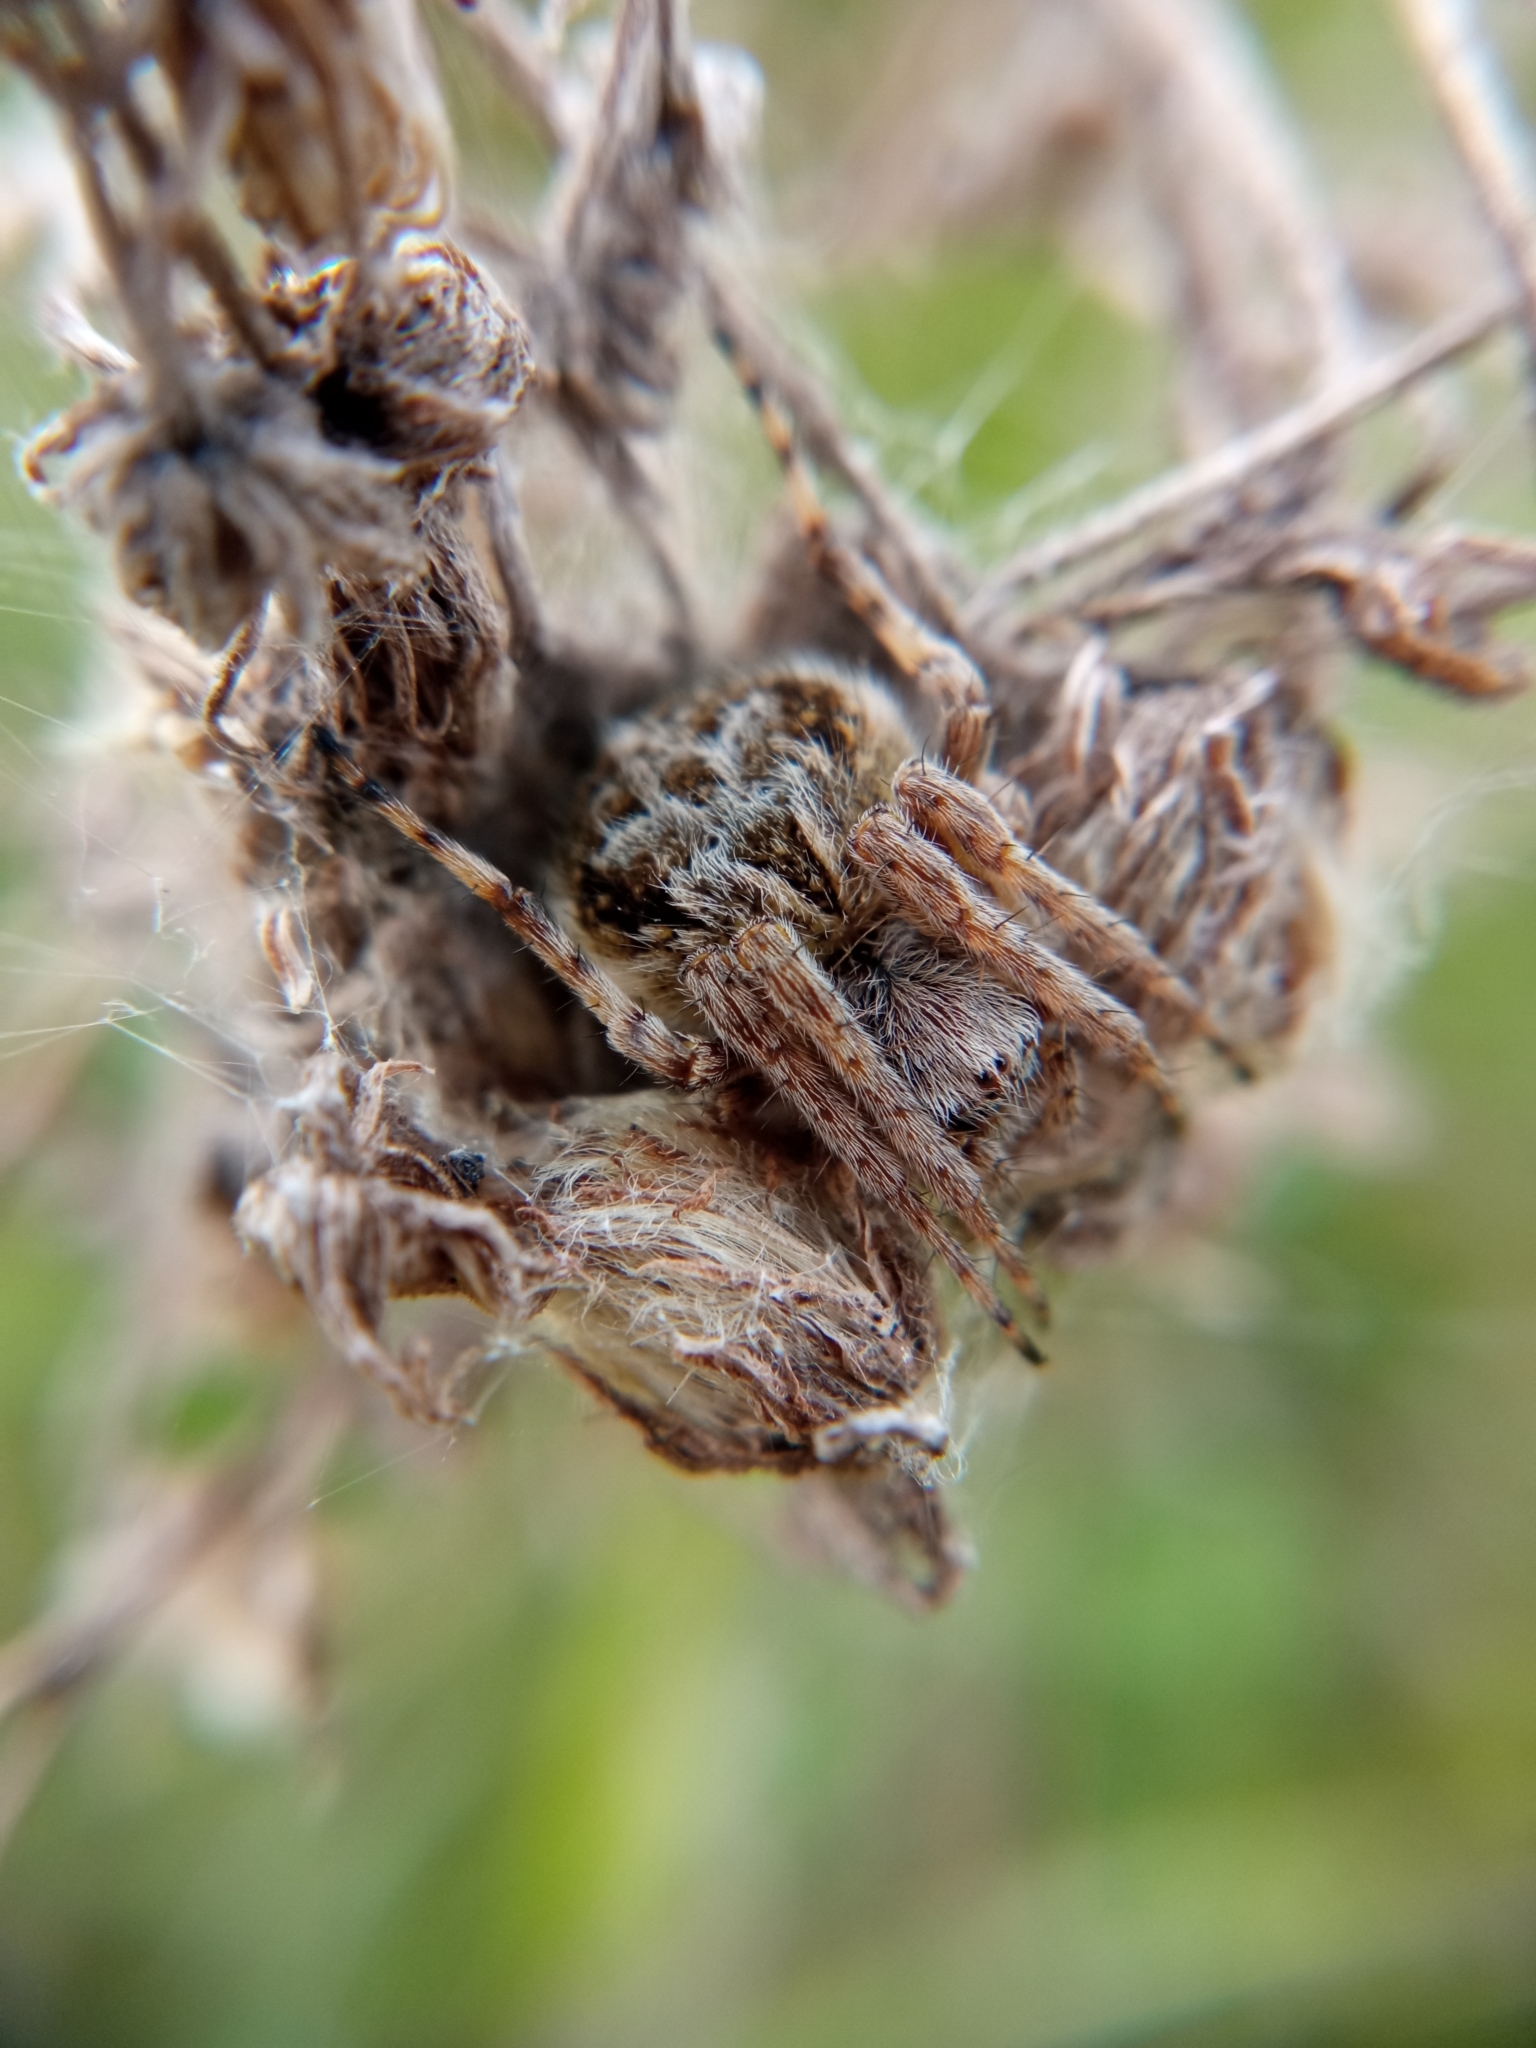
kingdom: Animalia
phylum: Arthropoda
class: Arachnida
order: Araneae
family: Araneidae
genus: Agalenatea
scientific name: Agalenatea redii
